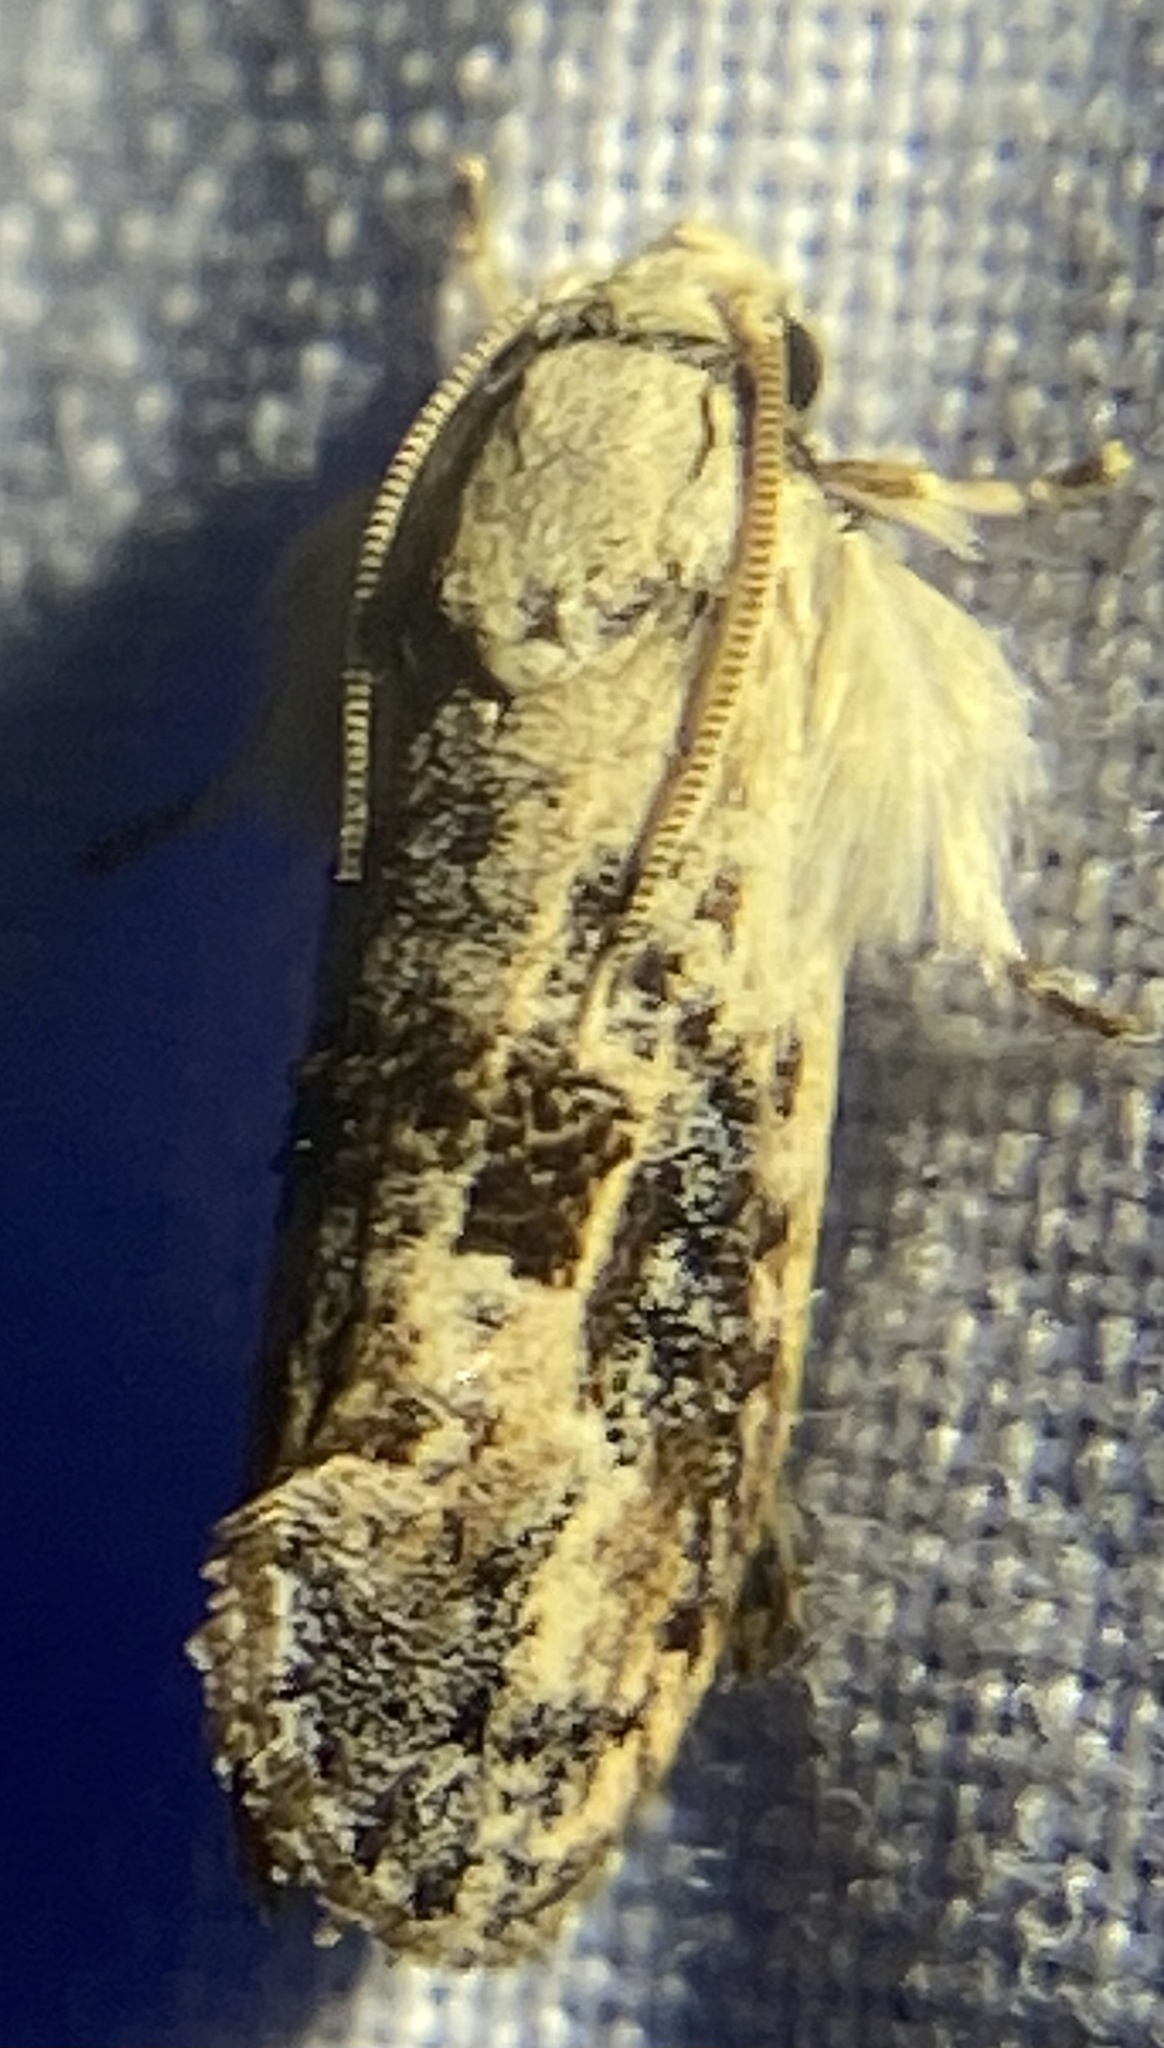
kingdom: Animalia
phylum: Arthropoda
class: Insecta
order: Lepidoptera
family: Tineidae
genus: Acrolophus
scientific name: Acrolophus mycetophagus
